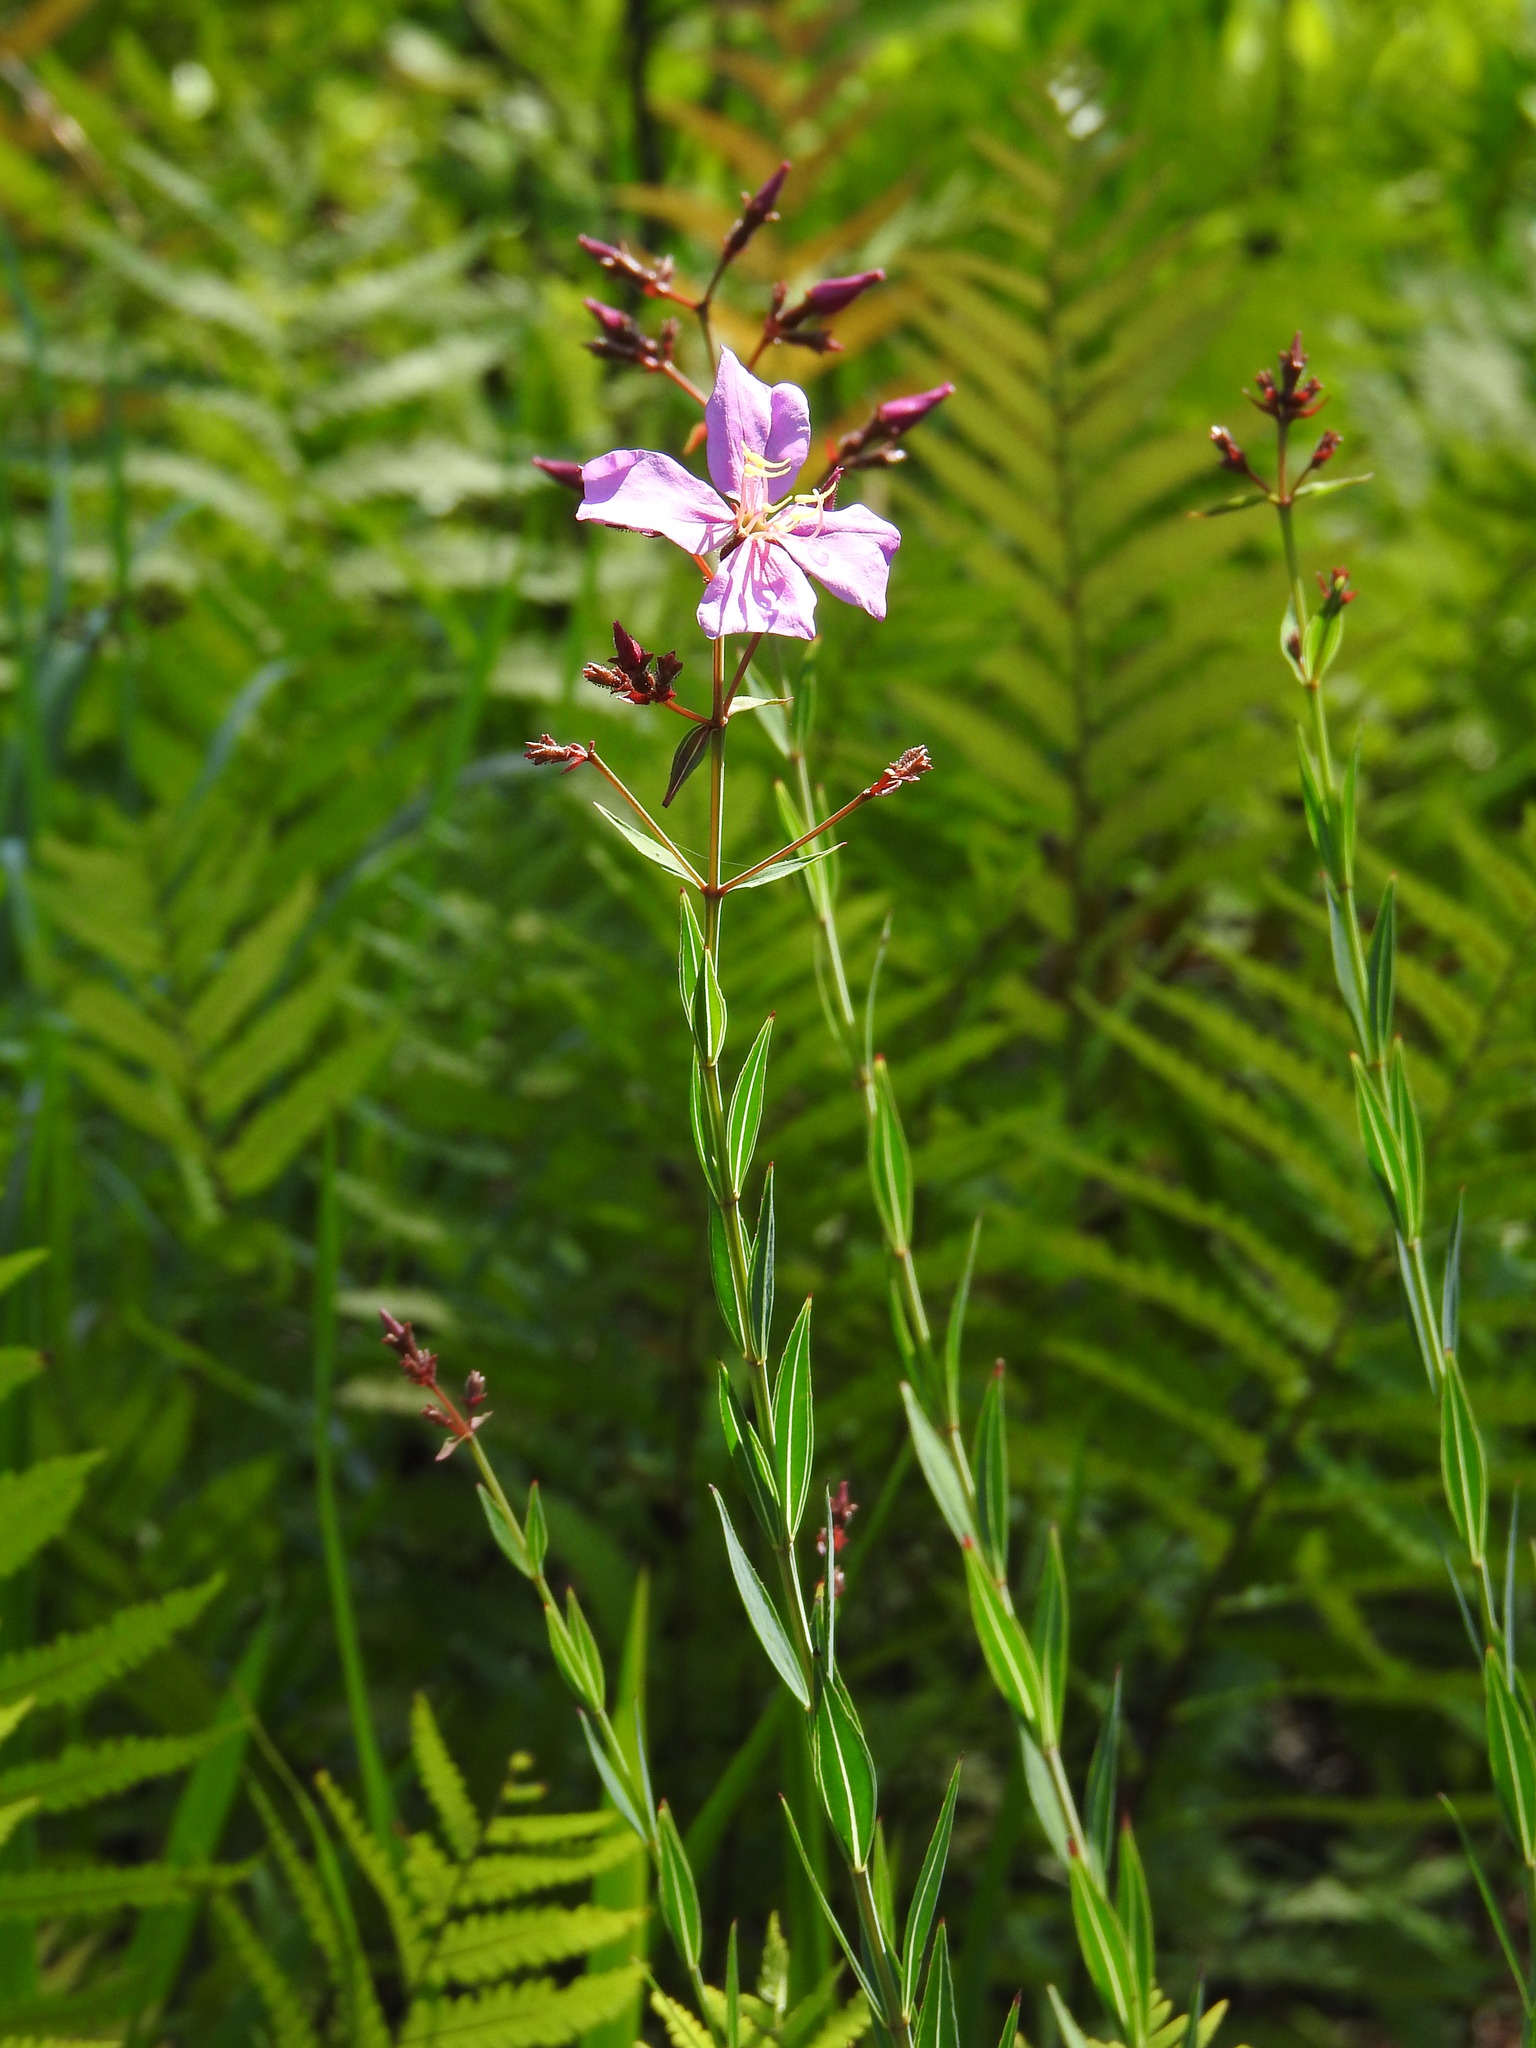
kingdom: Plantae
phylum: Tracheophyta
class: Magnoliopsida
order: Myrtales
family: Melastomataceae
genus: Rhexia
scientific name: Rhexia alifanus
